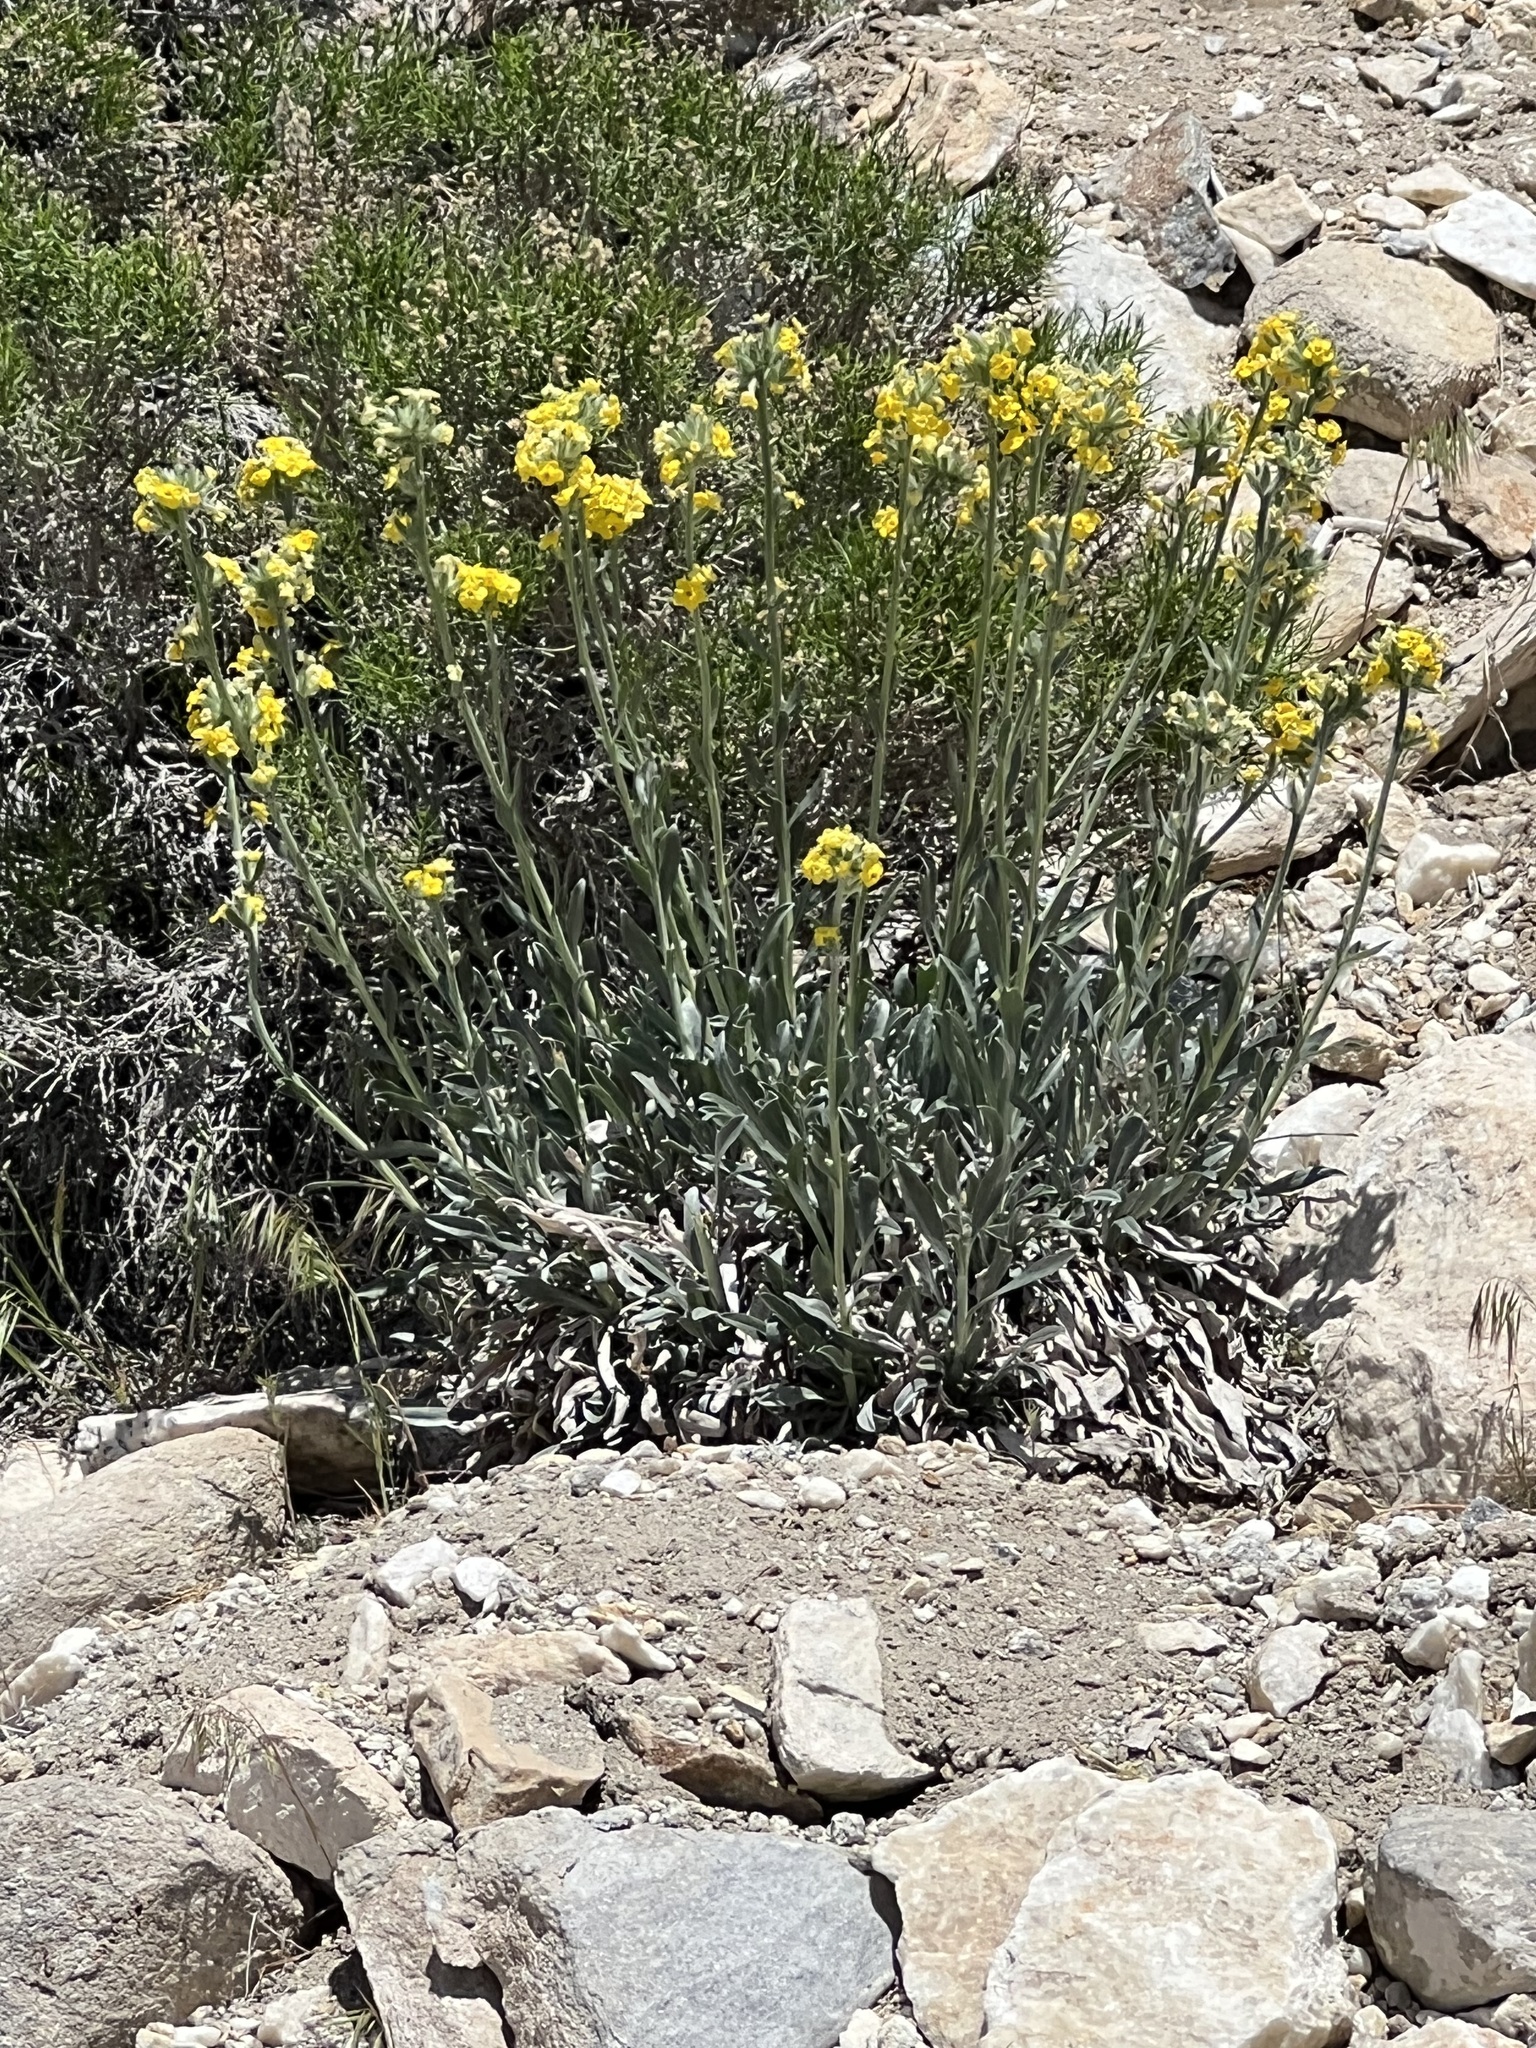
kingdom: Plantae
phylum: Tracheophyta
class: Magnoliopsida
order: Boraginales
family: Boraginaceae
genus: Oreocarya
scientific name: Oreocarya confertiflora
